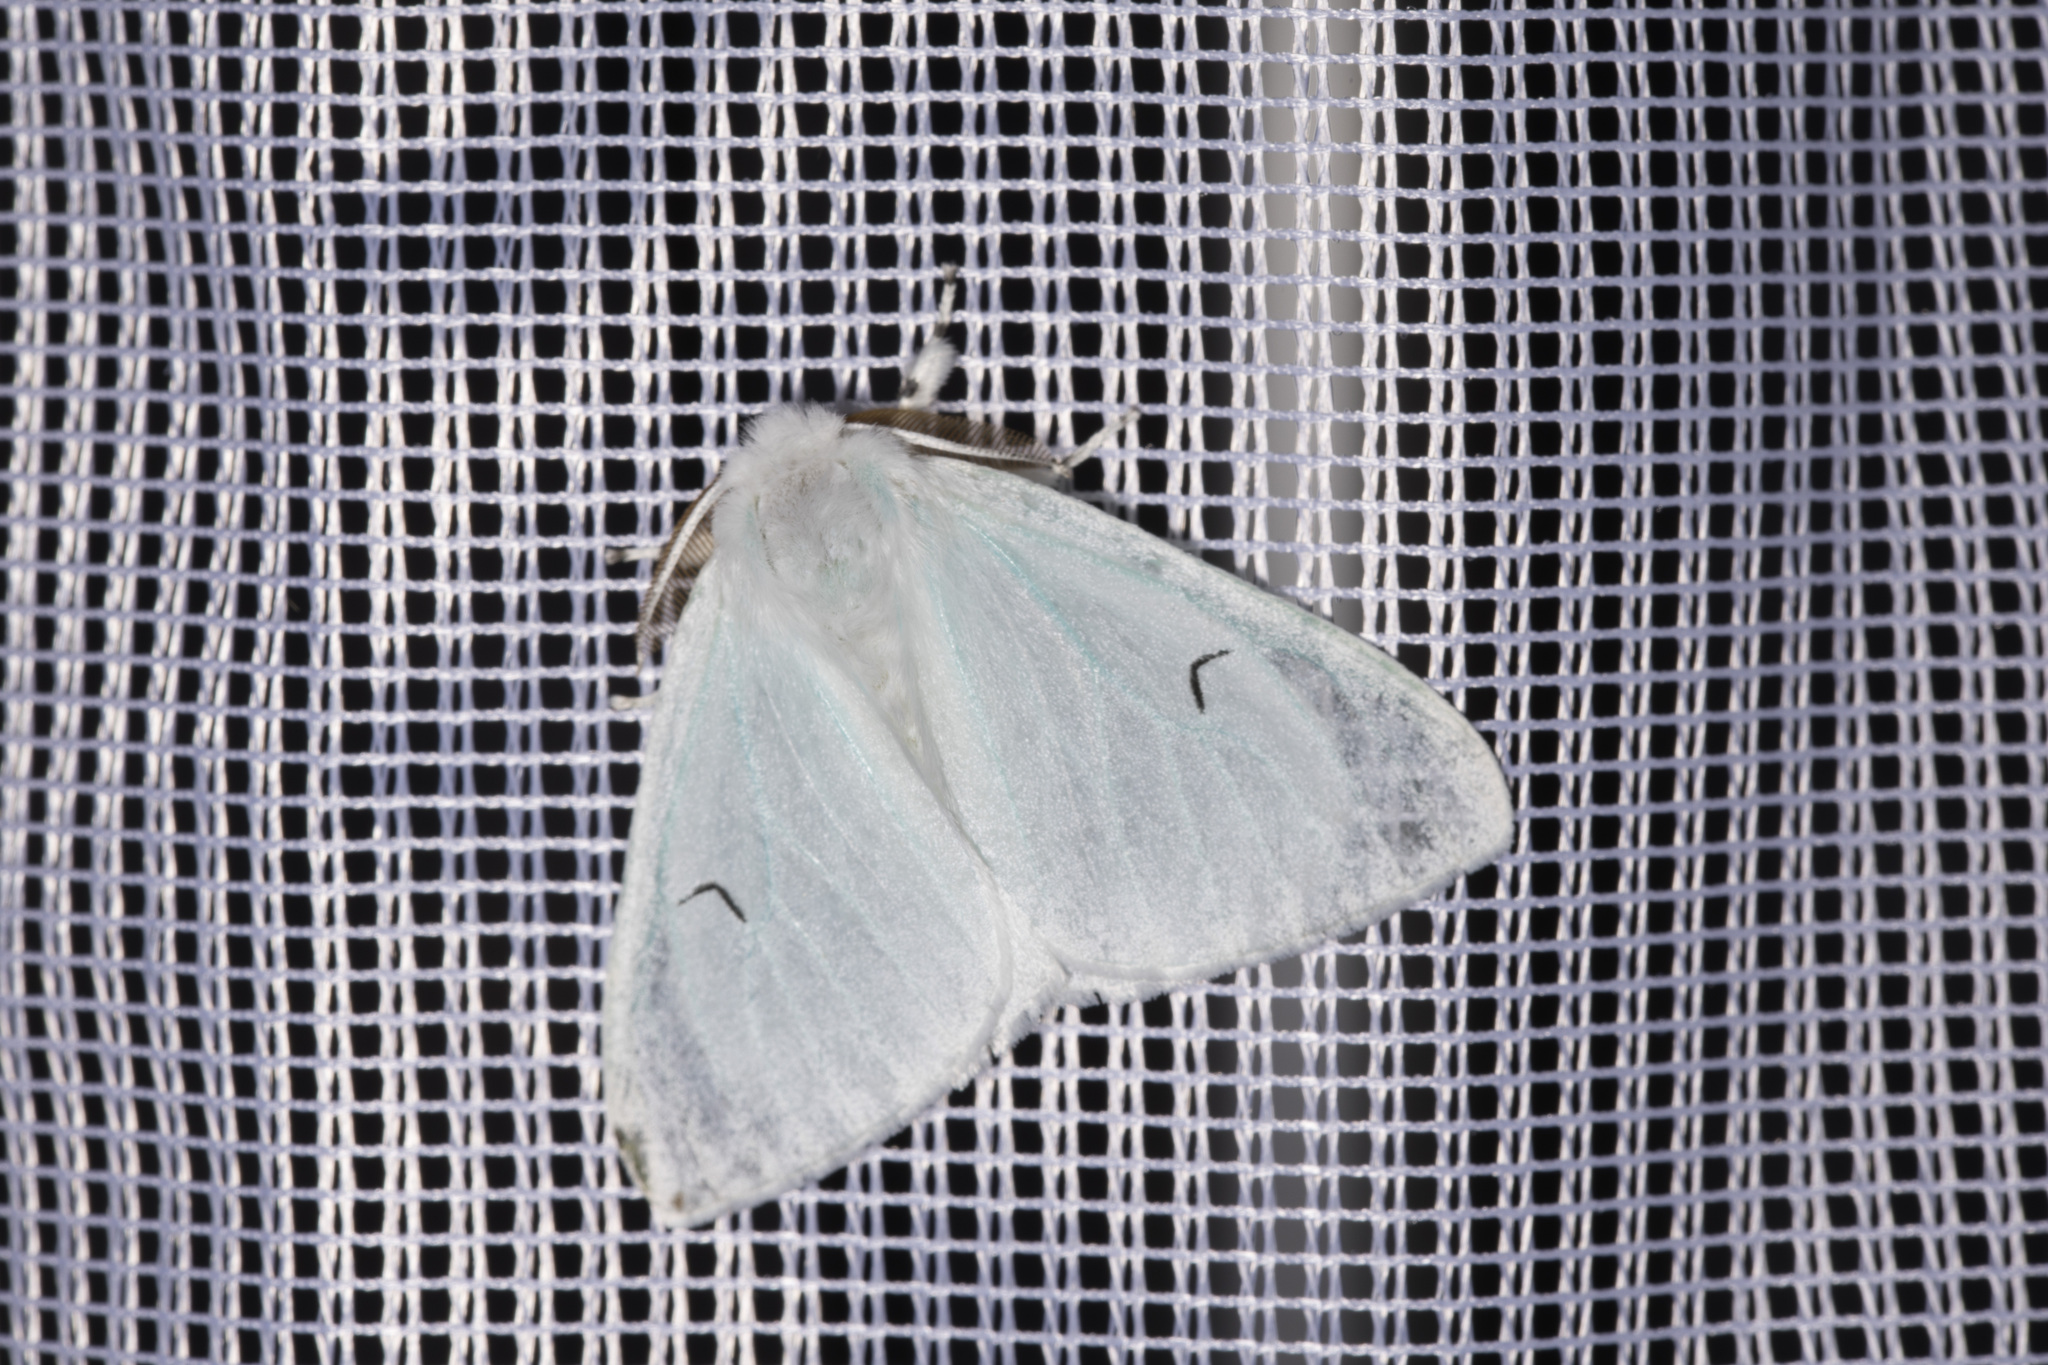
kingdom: Animalia
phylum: Arthropoda
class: Insecta
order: Lepidoptera
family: Erebidae
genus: Arctornis
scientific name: Arctornis l-nigrum
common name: Black v moth
